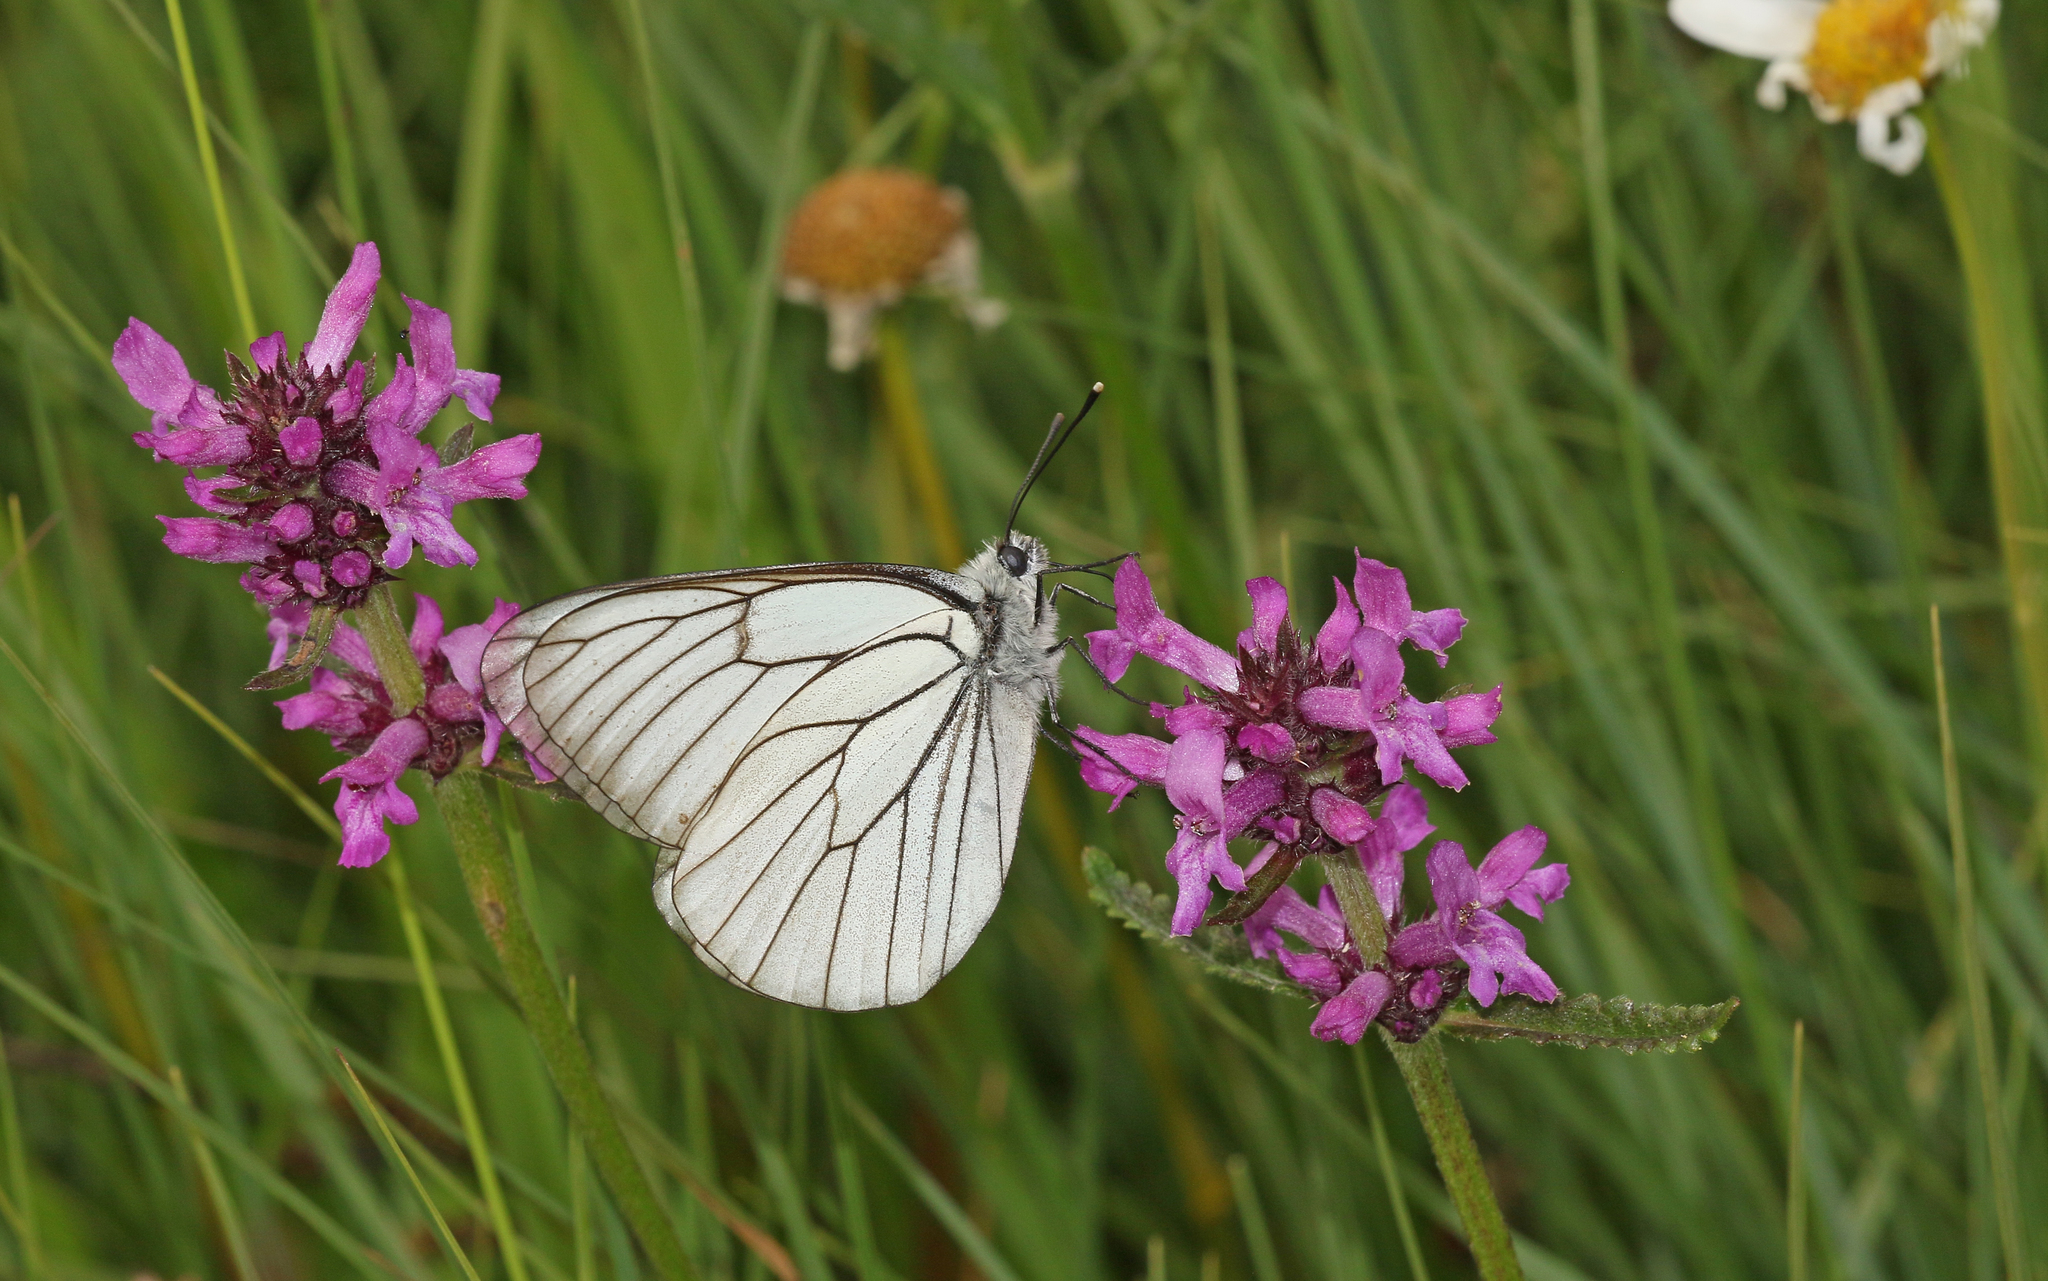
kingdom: Animalia
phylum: Arthropoda
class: Insecta
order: Lepidoptera
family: Pieridae
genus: Aporia
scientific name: Aporia crataegi
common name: Black-veined white
